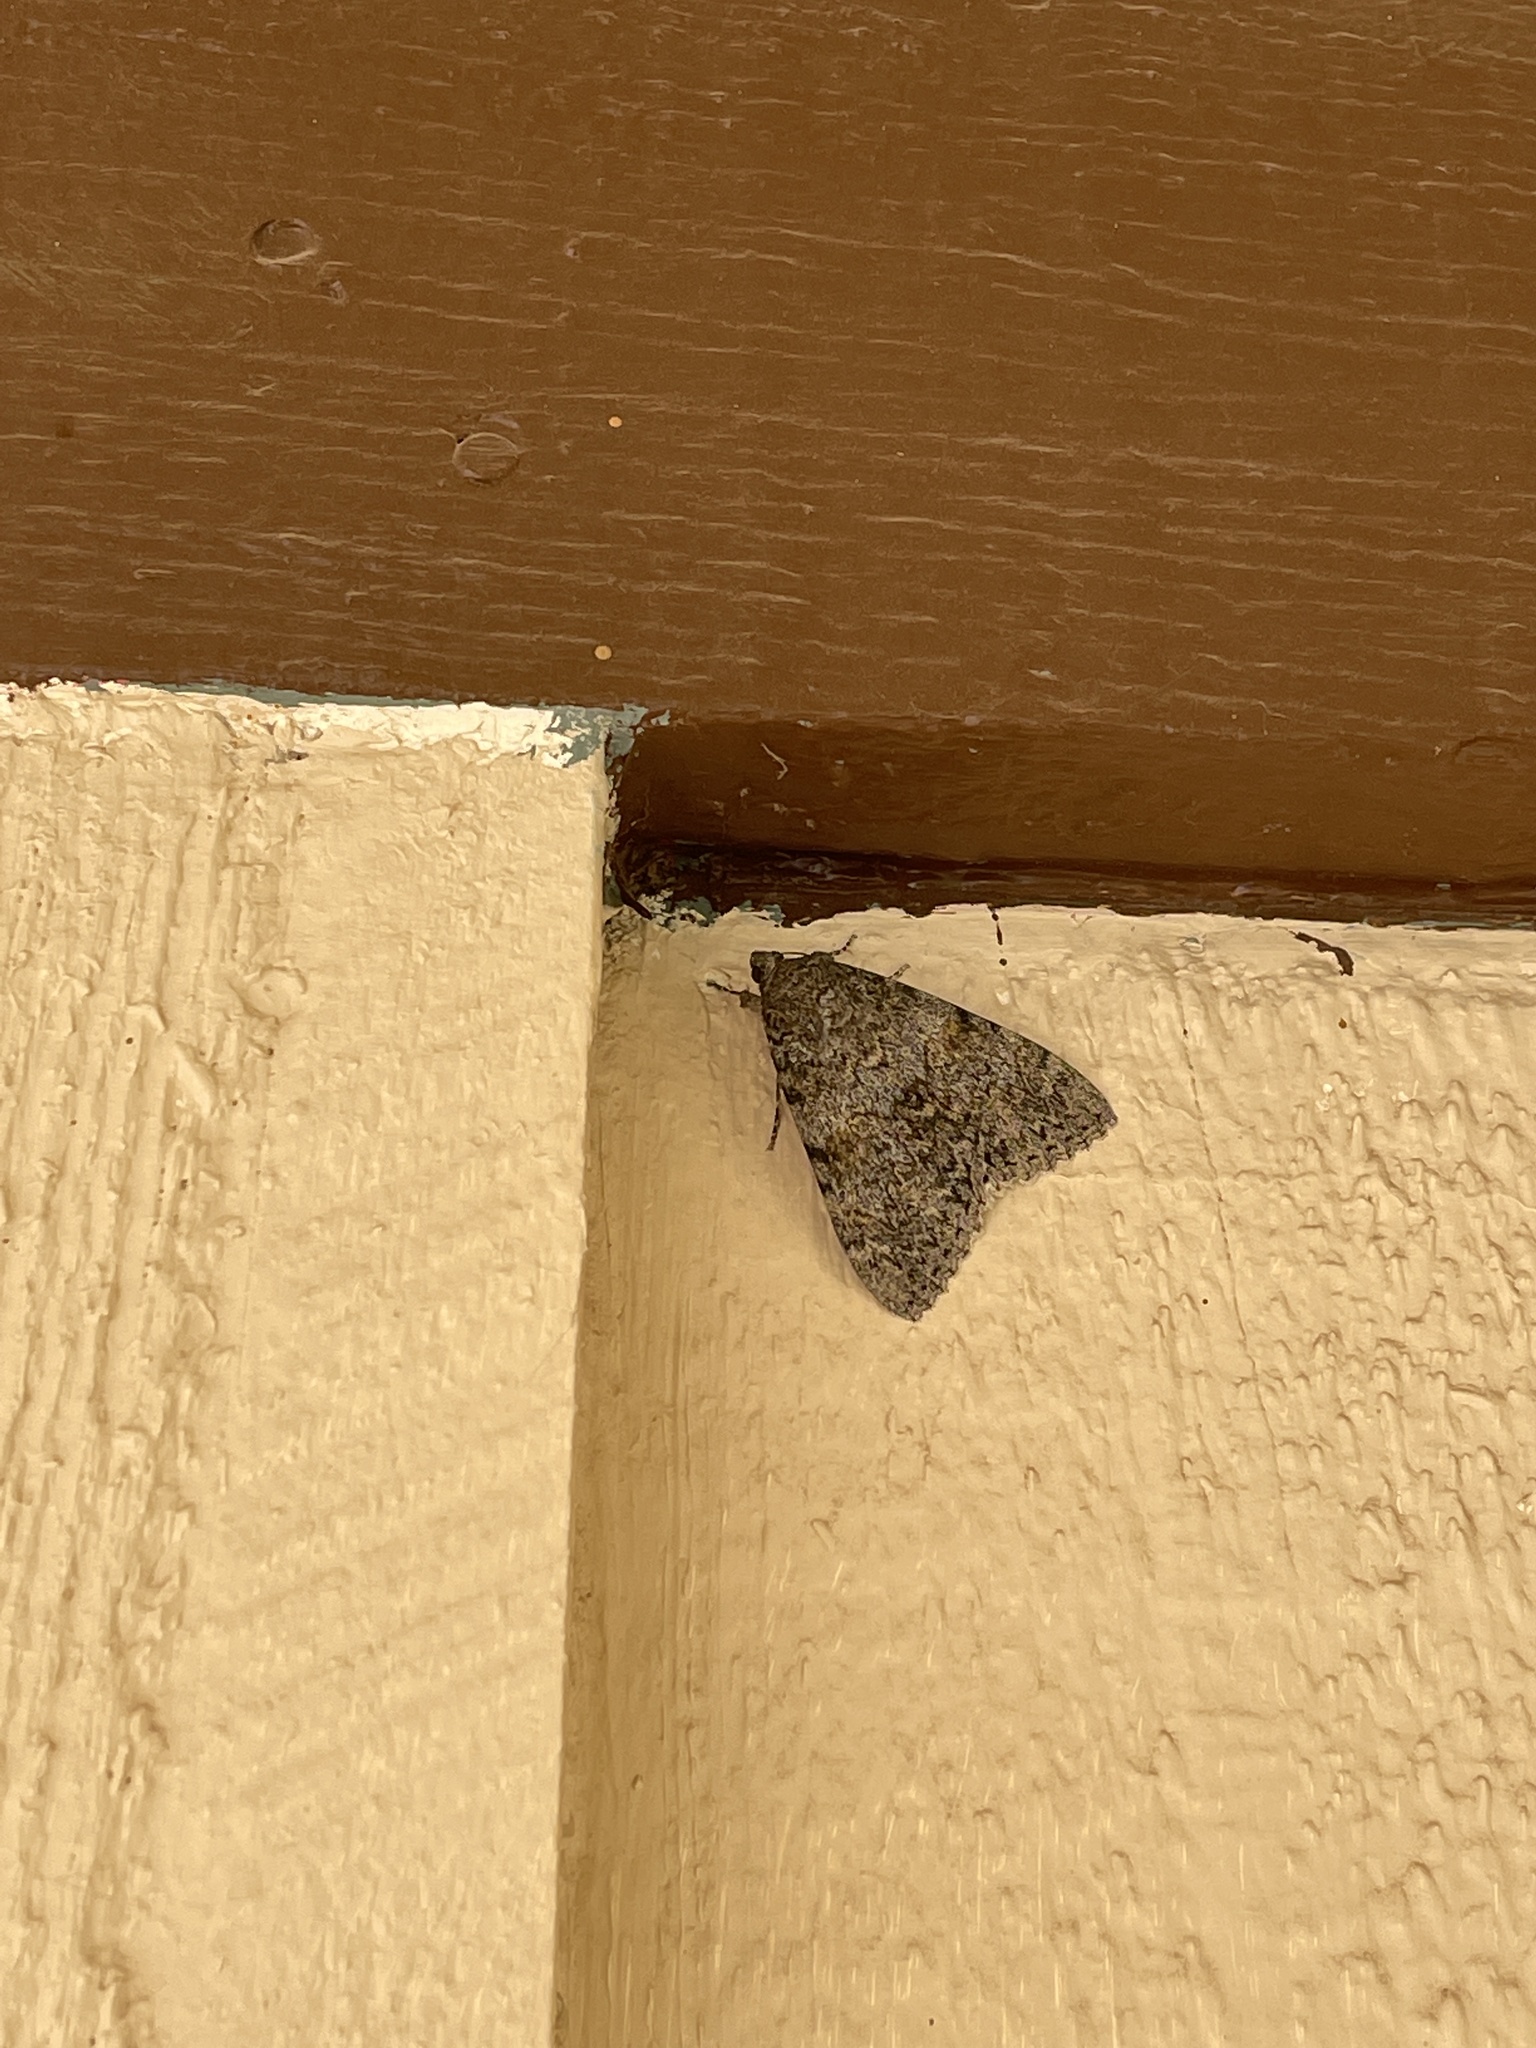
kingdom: Animalia
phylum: Arthropoda
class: Insecta
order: Lepidoptera
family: Erebidae
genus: Catocala
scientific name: Catocala junctura
